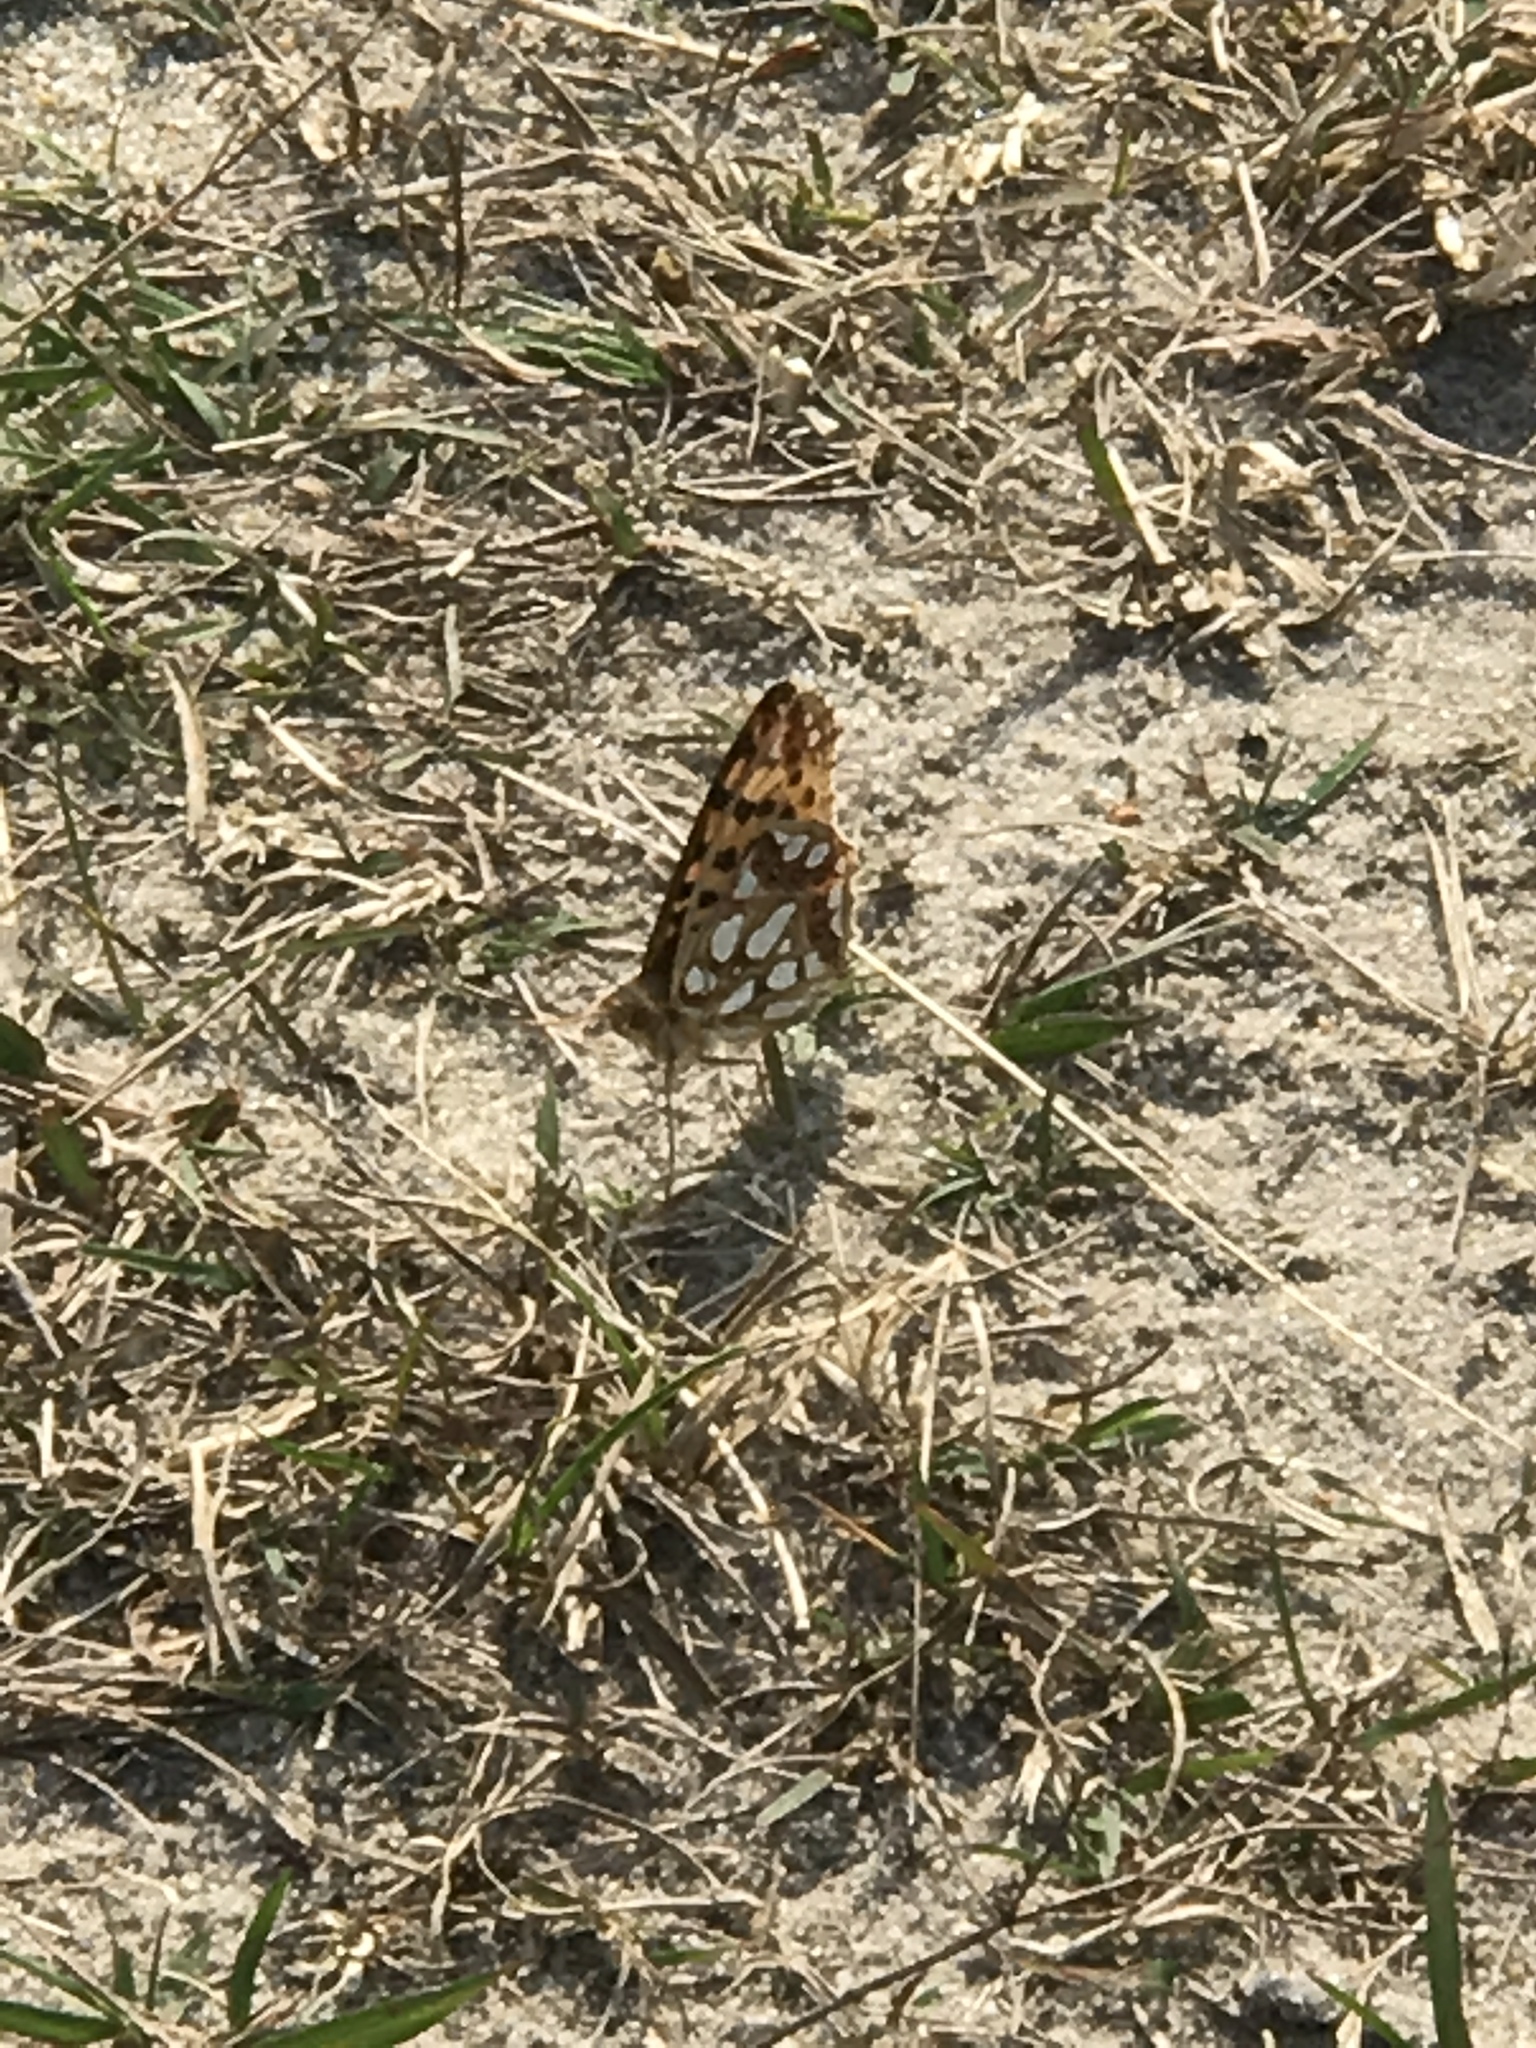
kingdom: Animalia
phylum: Arthropoda
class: Insecta
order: Lepidoptera
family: Nymphalidae
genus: Issoria
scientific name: Issoria lathonia
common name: Queen of spain fritillary
